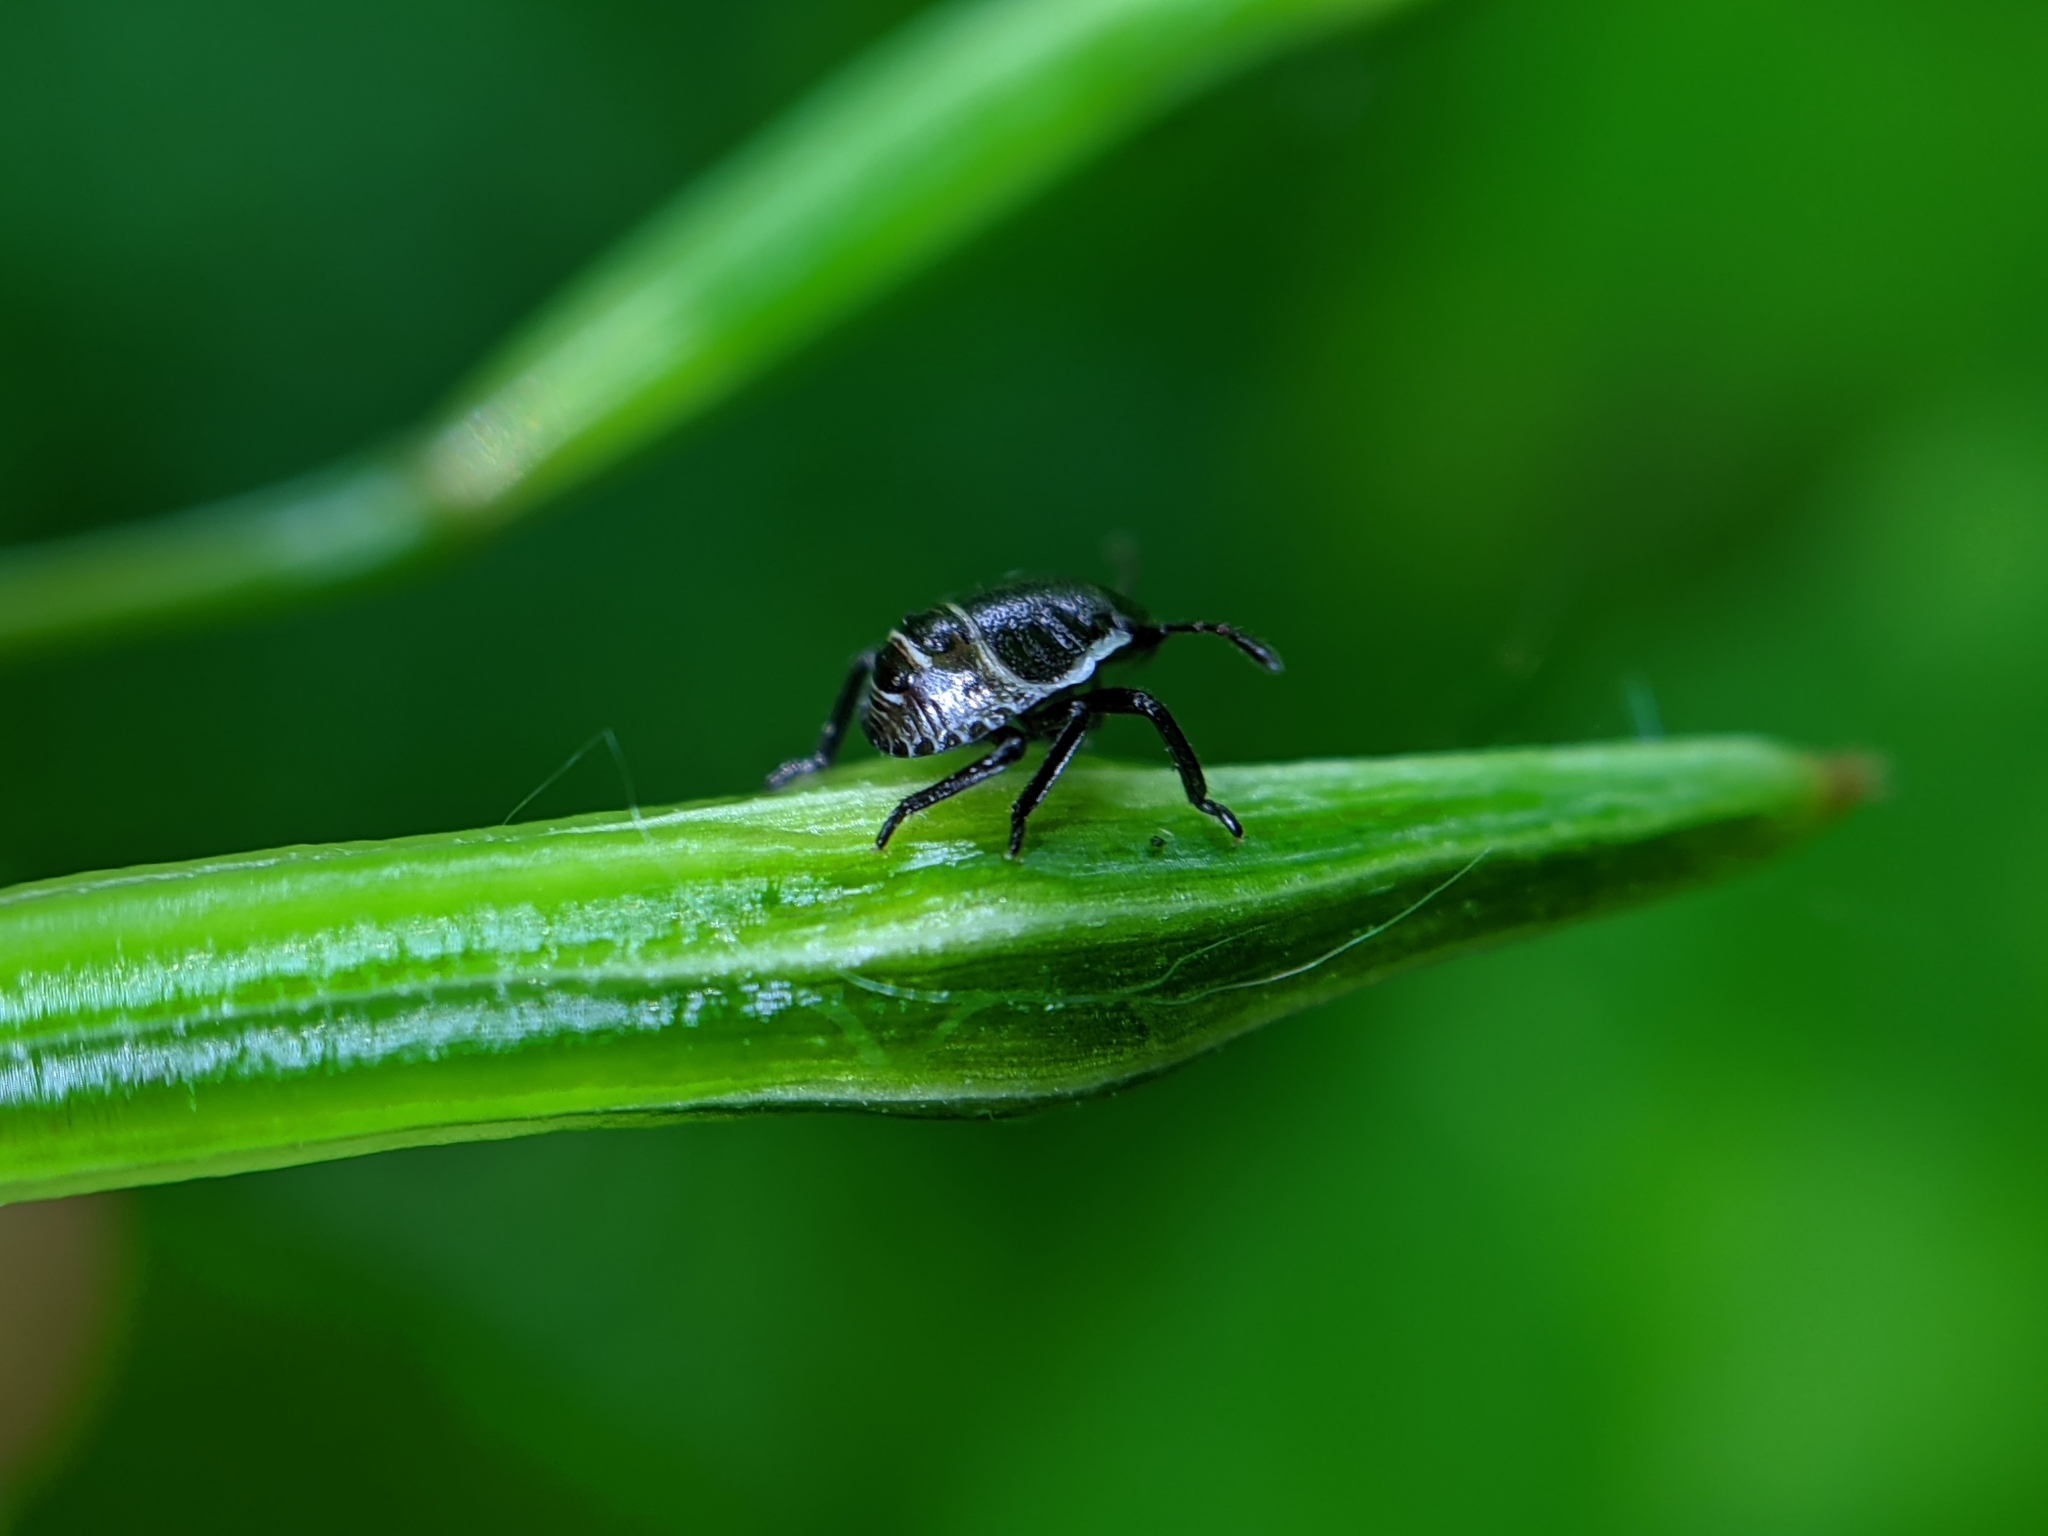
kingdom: Animalia
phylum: Arthropoda
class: Insecta
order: Hemiptera
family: Pentatomidae
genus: Palomena
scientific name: Palomena prasina
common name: Green shieldbug
